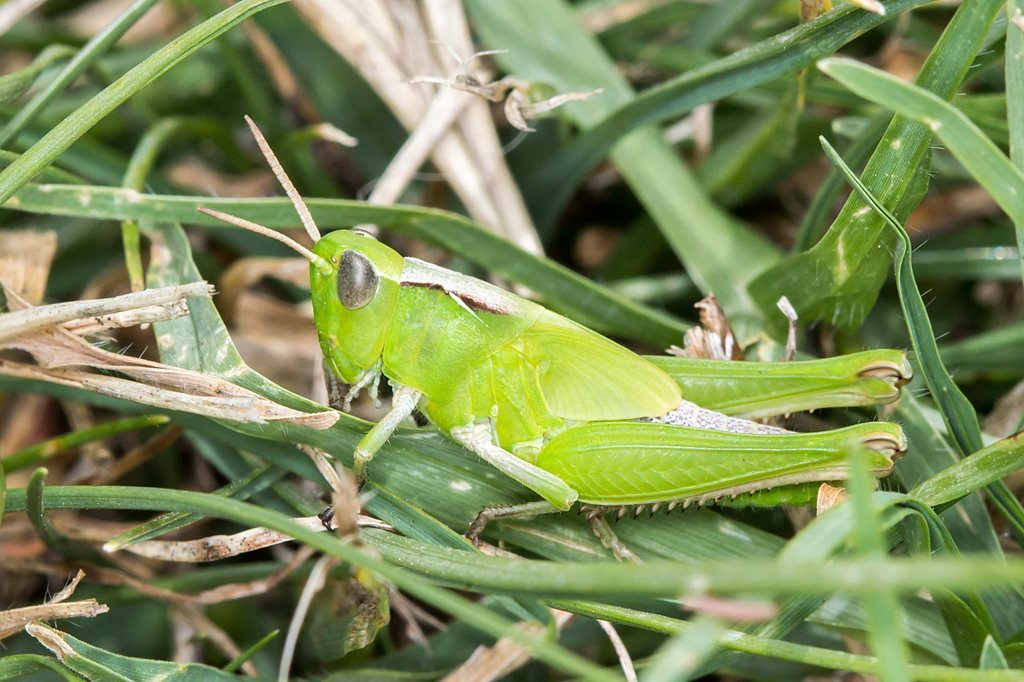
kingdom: Animalia
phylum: Arthropoda
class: Insecta
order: Orthoptera
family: Acrididae
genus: Schizobothrus
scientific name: Schizobothrus flavovittatus
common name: Disappearing grasshopper
